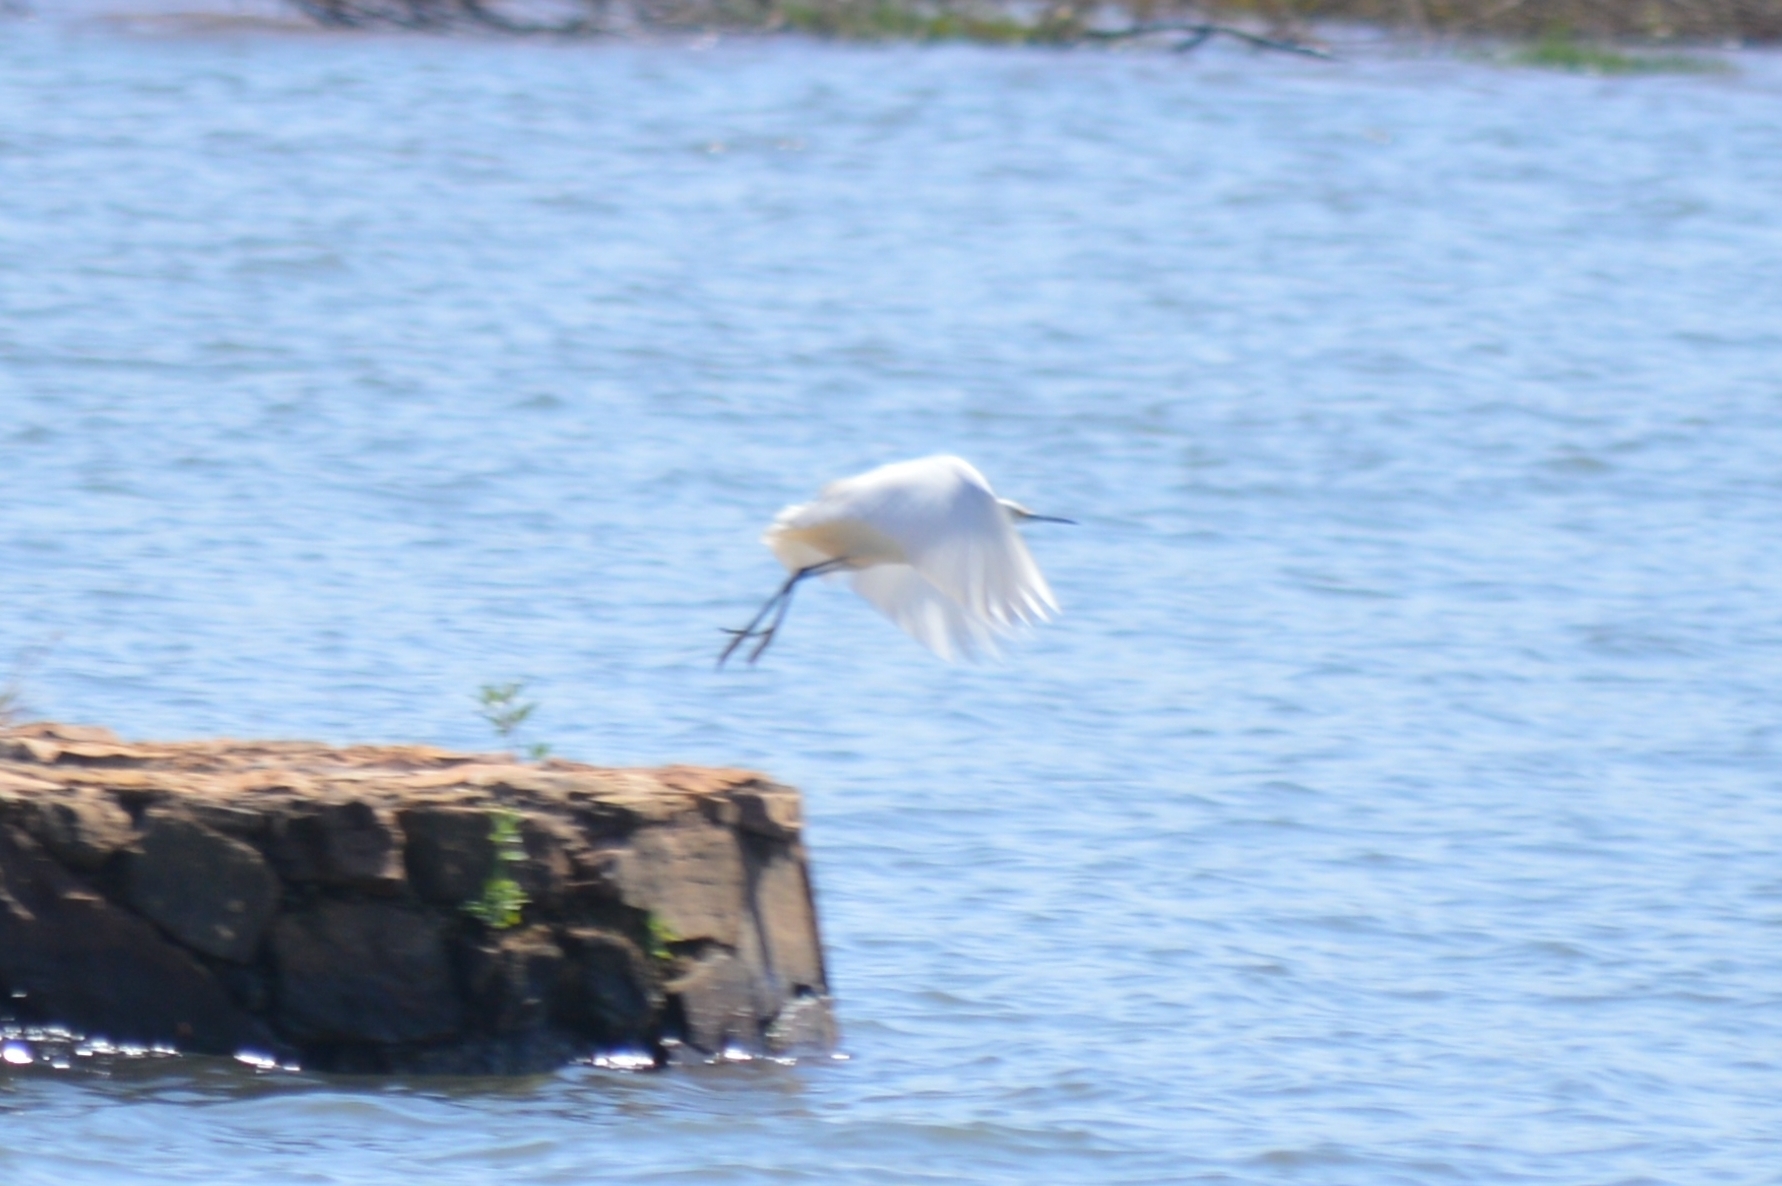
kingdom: Animalia
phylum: Chordata
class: Aves
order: Pelecaniformes
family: Ardeidae
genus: Egretta
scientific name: Egretta thula
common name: Snowy egret
